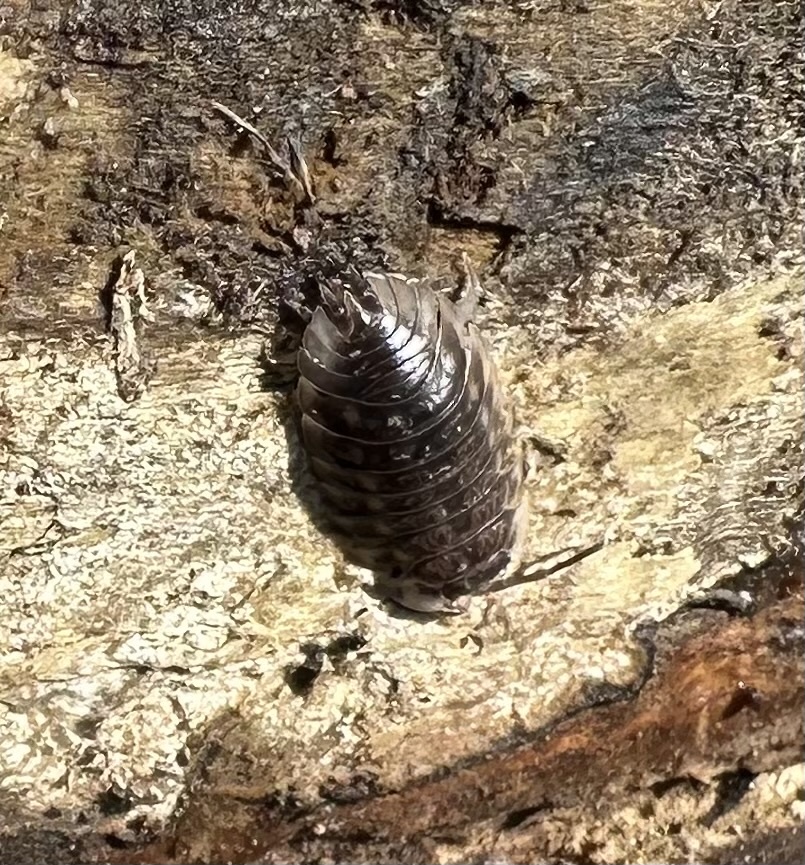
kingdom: Animalia
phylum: Arthropoda
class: Malacostraca
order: Isopoda
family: Oniscidae
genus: Oniscus
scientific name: Oniscus asellus
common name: Common shiny woodlouse
